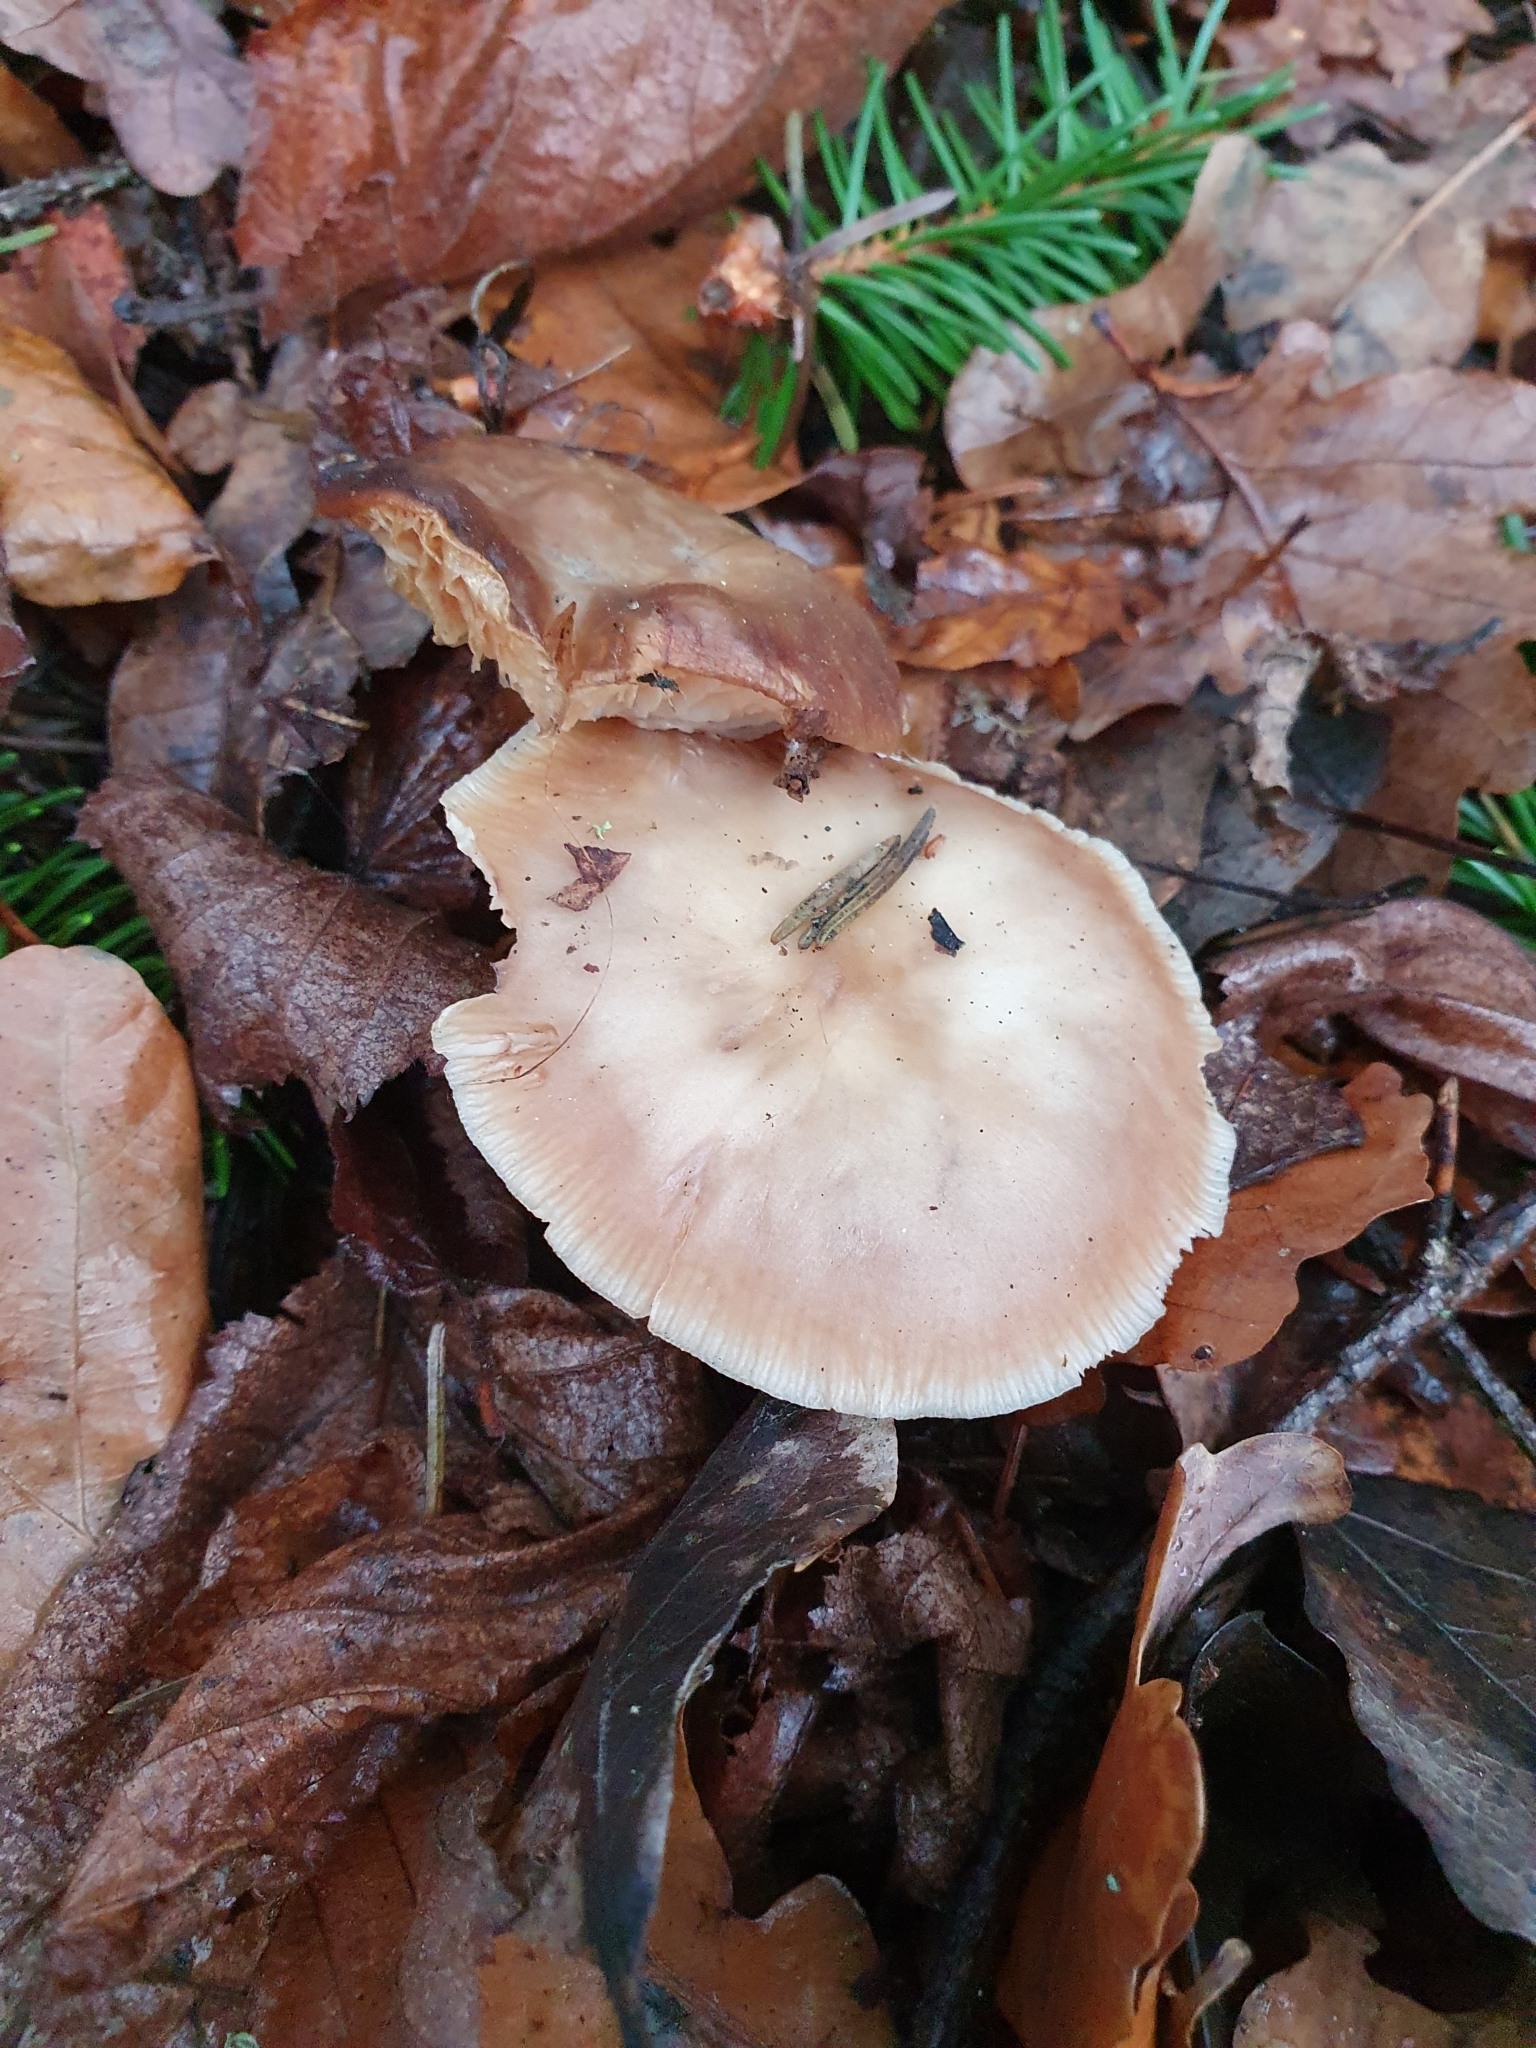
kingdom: Fungi
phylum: Basidiomycota
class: Agaricomycetes
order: Agaricales
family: Omphalotaceae
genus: Rhodocollybia
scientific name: Rhodocollybia butyracea
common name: Butter cap
